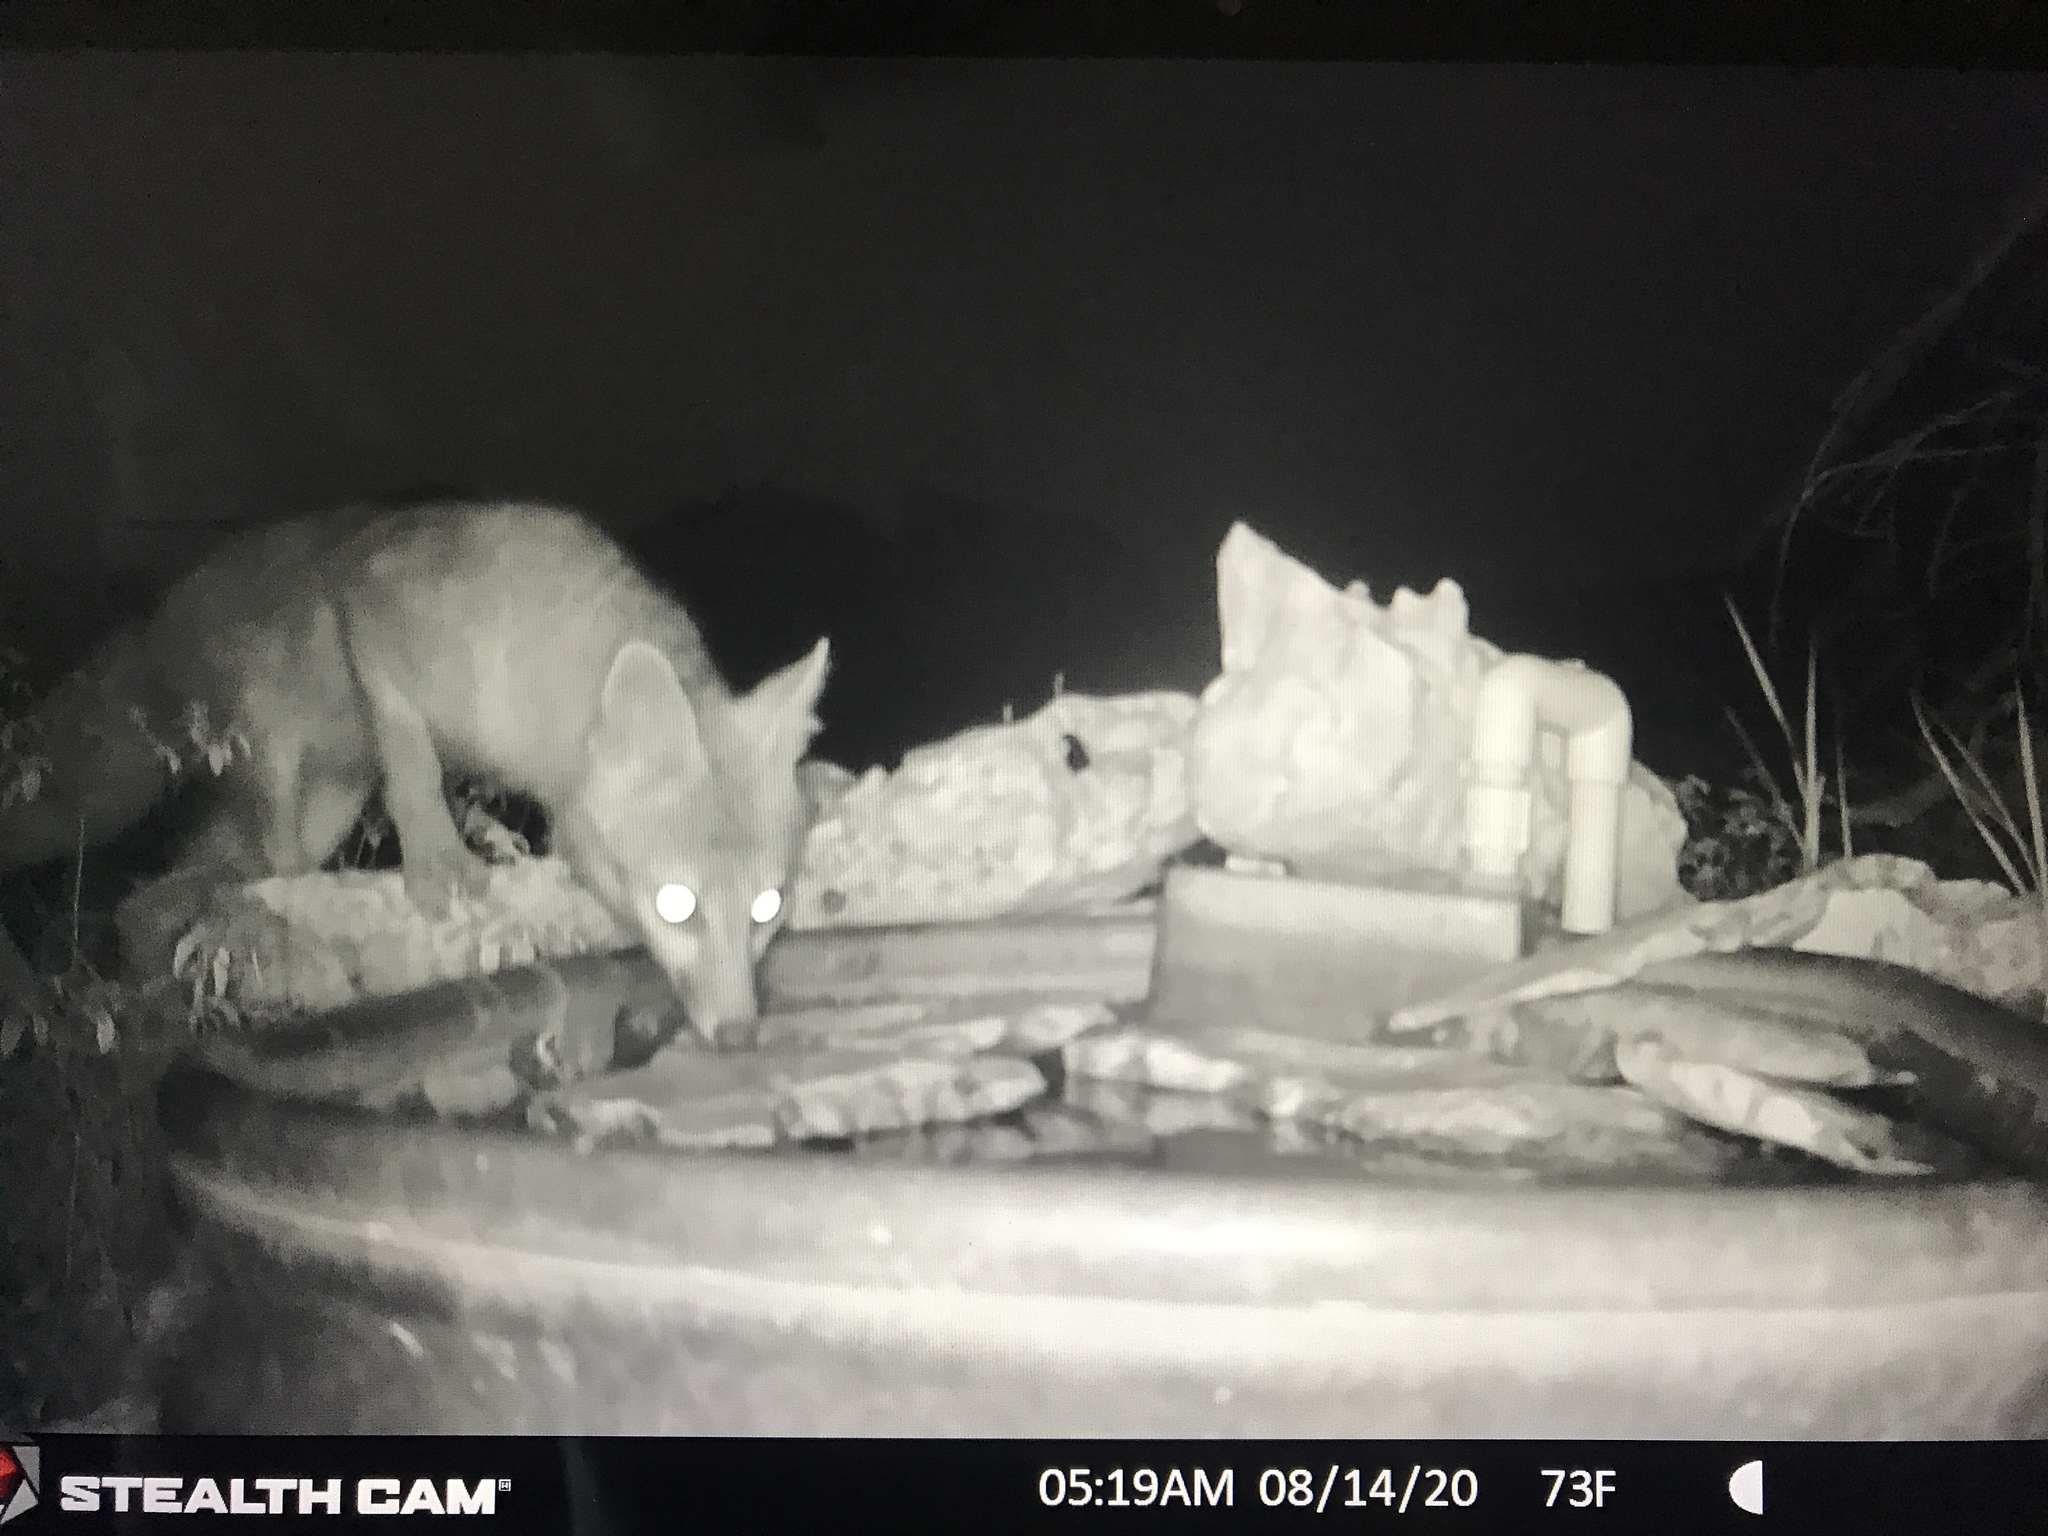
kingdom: Animalia
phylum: Chordata
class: Mammalia
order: Carnivora
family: Canidae
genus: Urocyon
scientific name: Urocyon cinereoargenteus
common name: Gray fox
